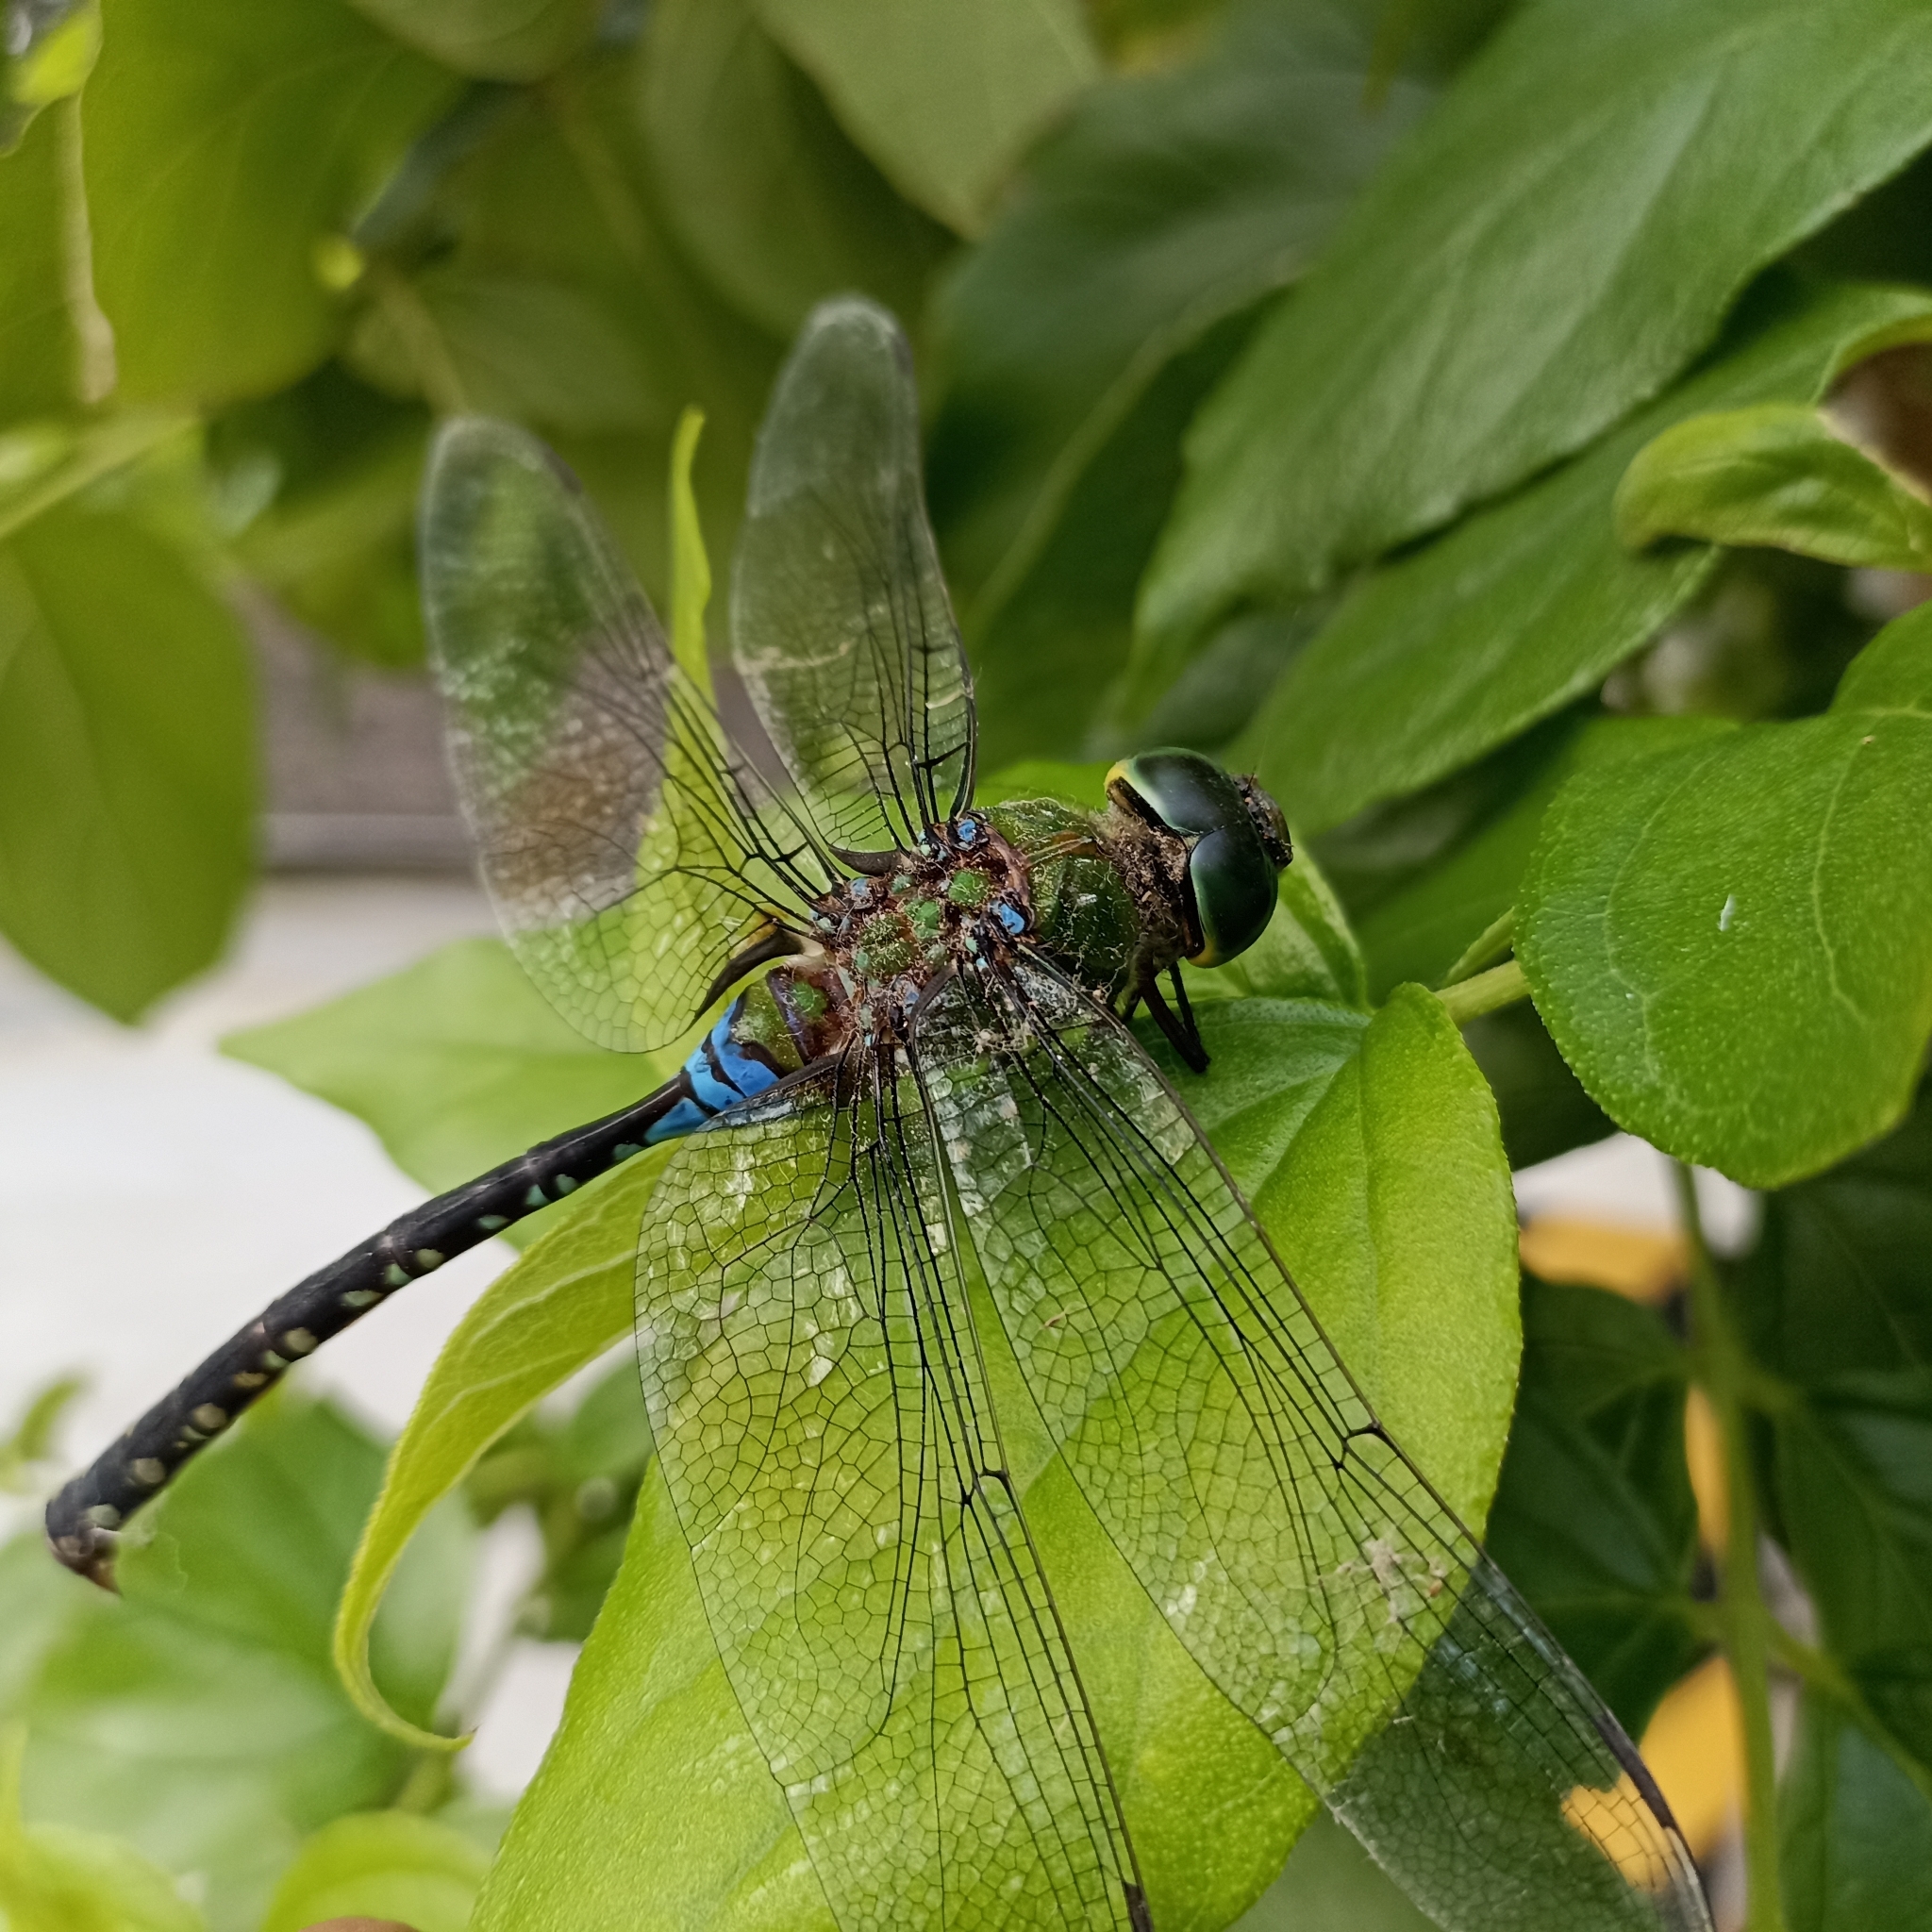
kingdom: Animalia
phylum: Arthropoda
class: Insecta
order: Odonata
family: Aeshnidae
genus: Anax
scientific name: Anax guttatus
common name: Emperor
